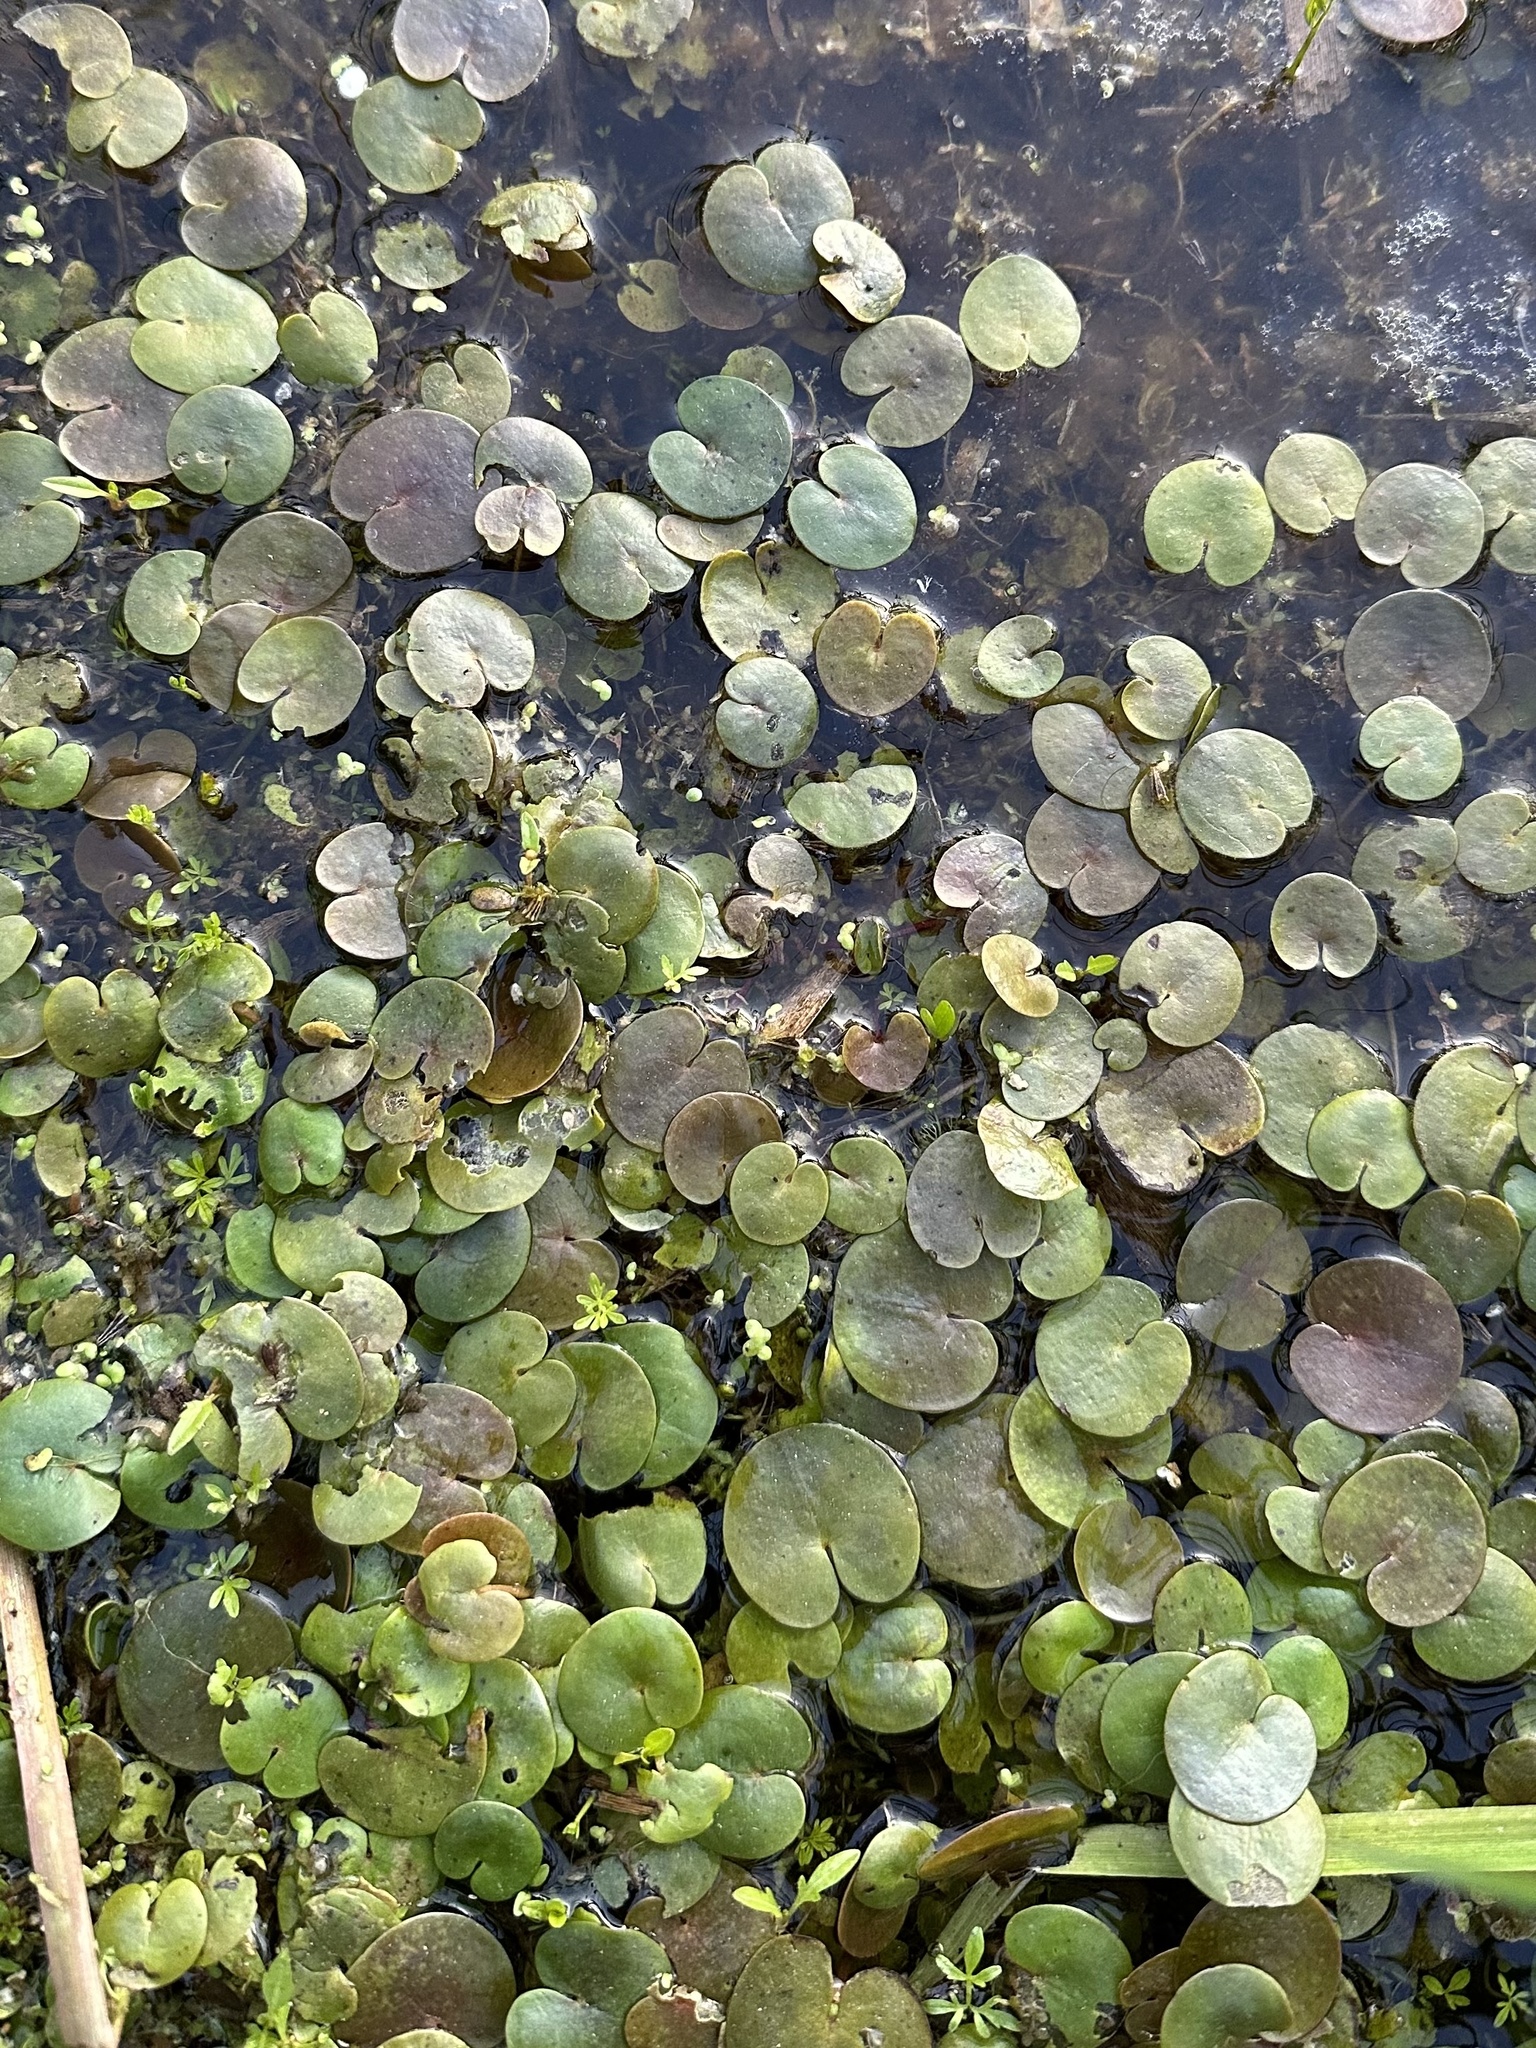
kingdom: Plantae
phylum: Tracheophyta
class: Liliopsida
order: Alismatales
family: Hydrocharitaceae
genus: Hydrocharis
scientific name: Hydrocharis morsus-ranae
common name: Frogbit
